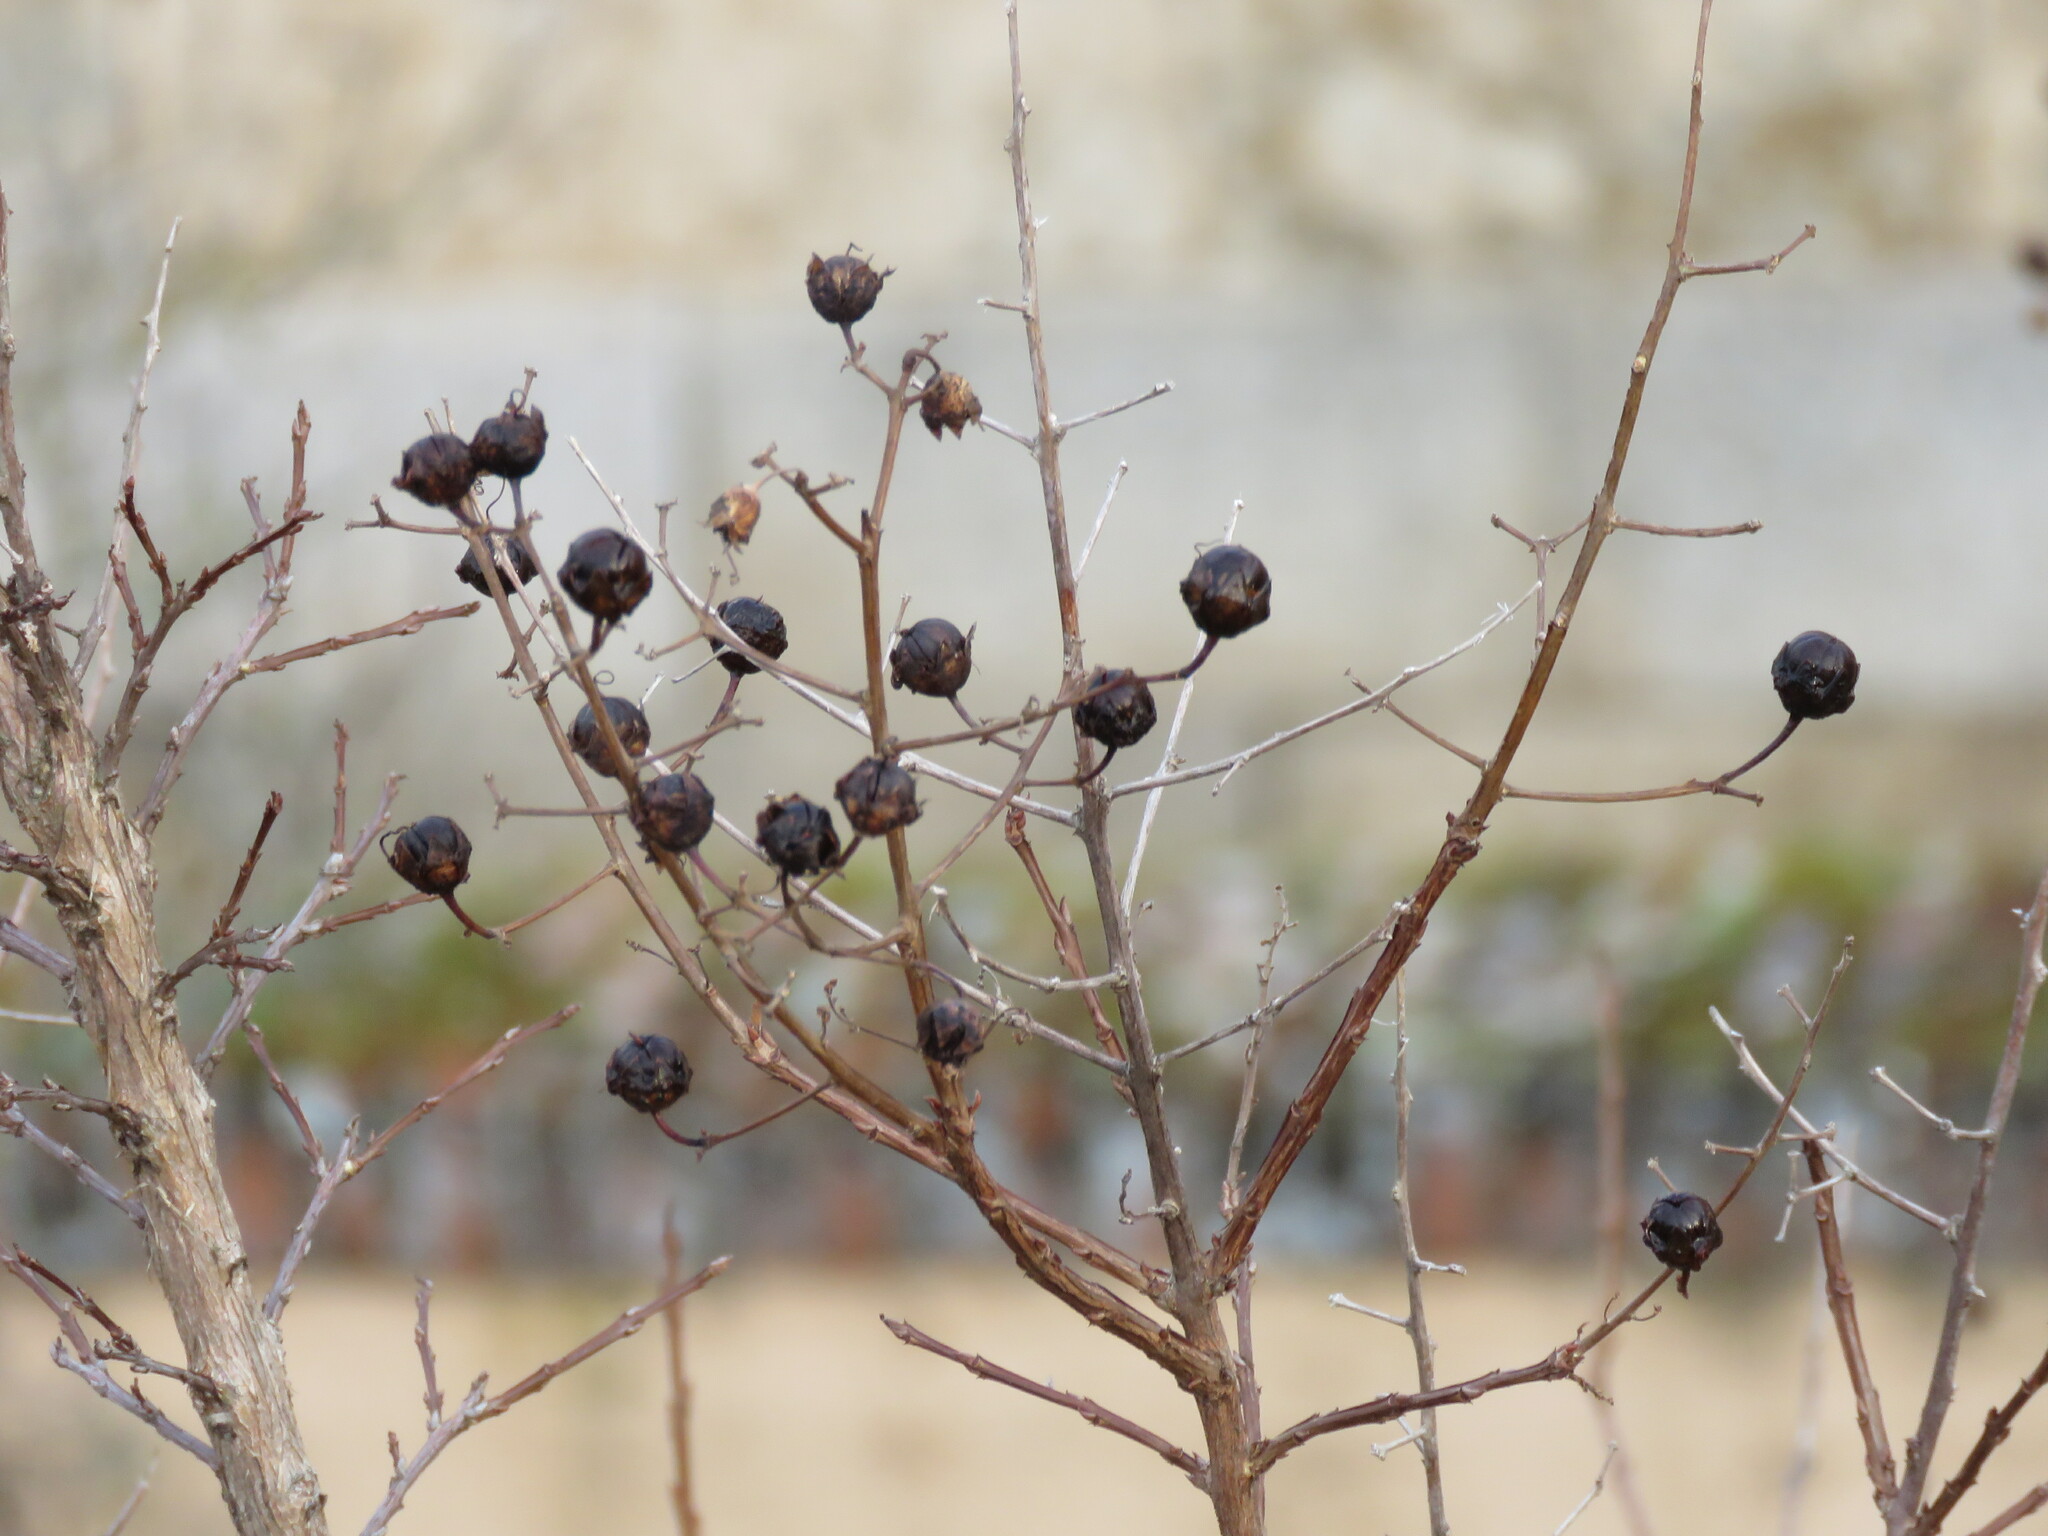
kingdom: Plantae
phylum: Tracheophyta
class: Magnoliopsida
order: Myrtales
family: Lythraceae
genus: Lagerstroemia
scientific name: Lagerstroemia indica
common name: Crape-myrtle
